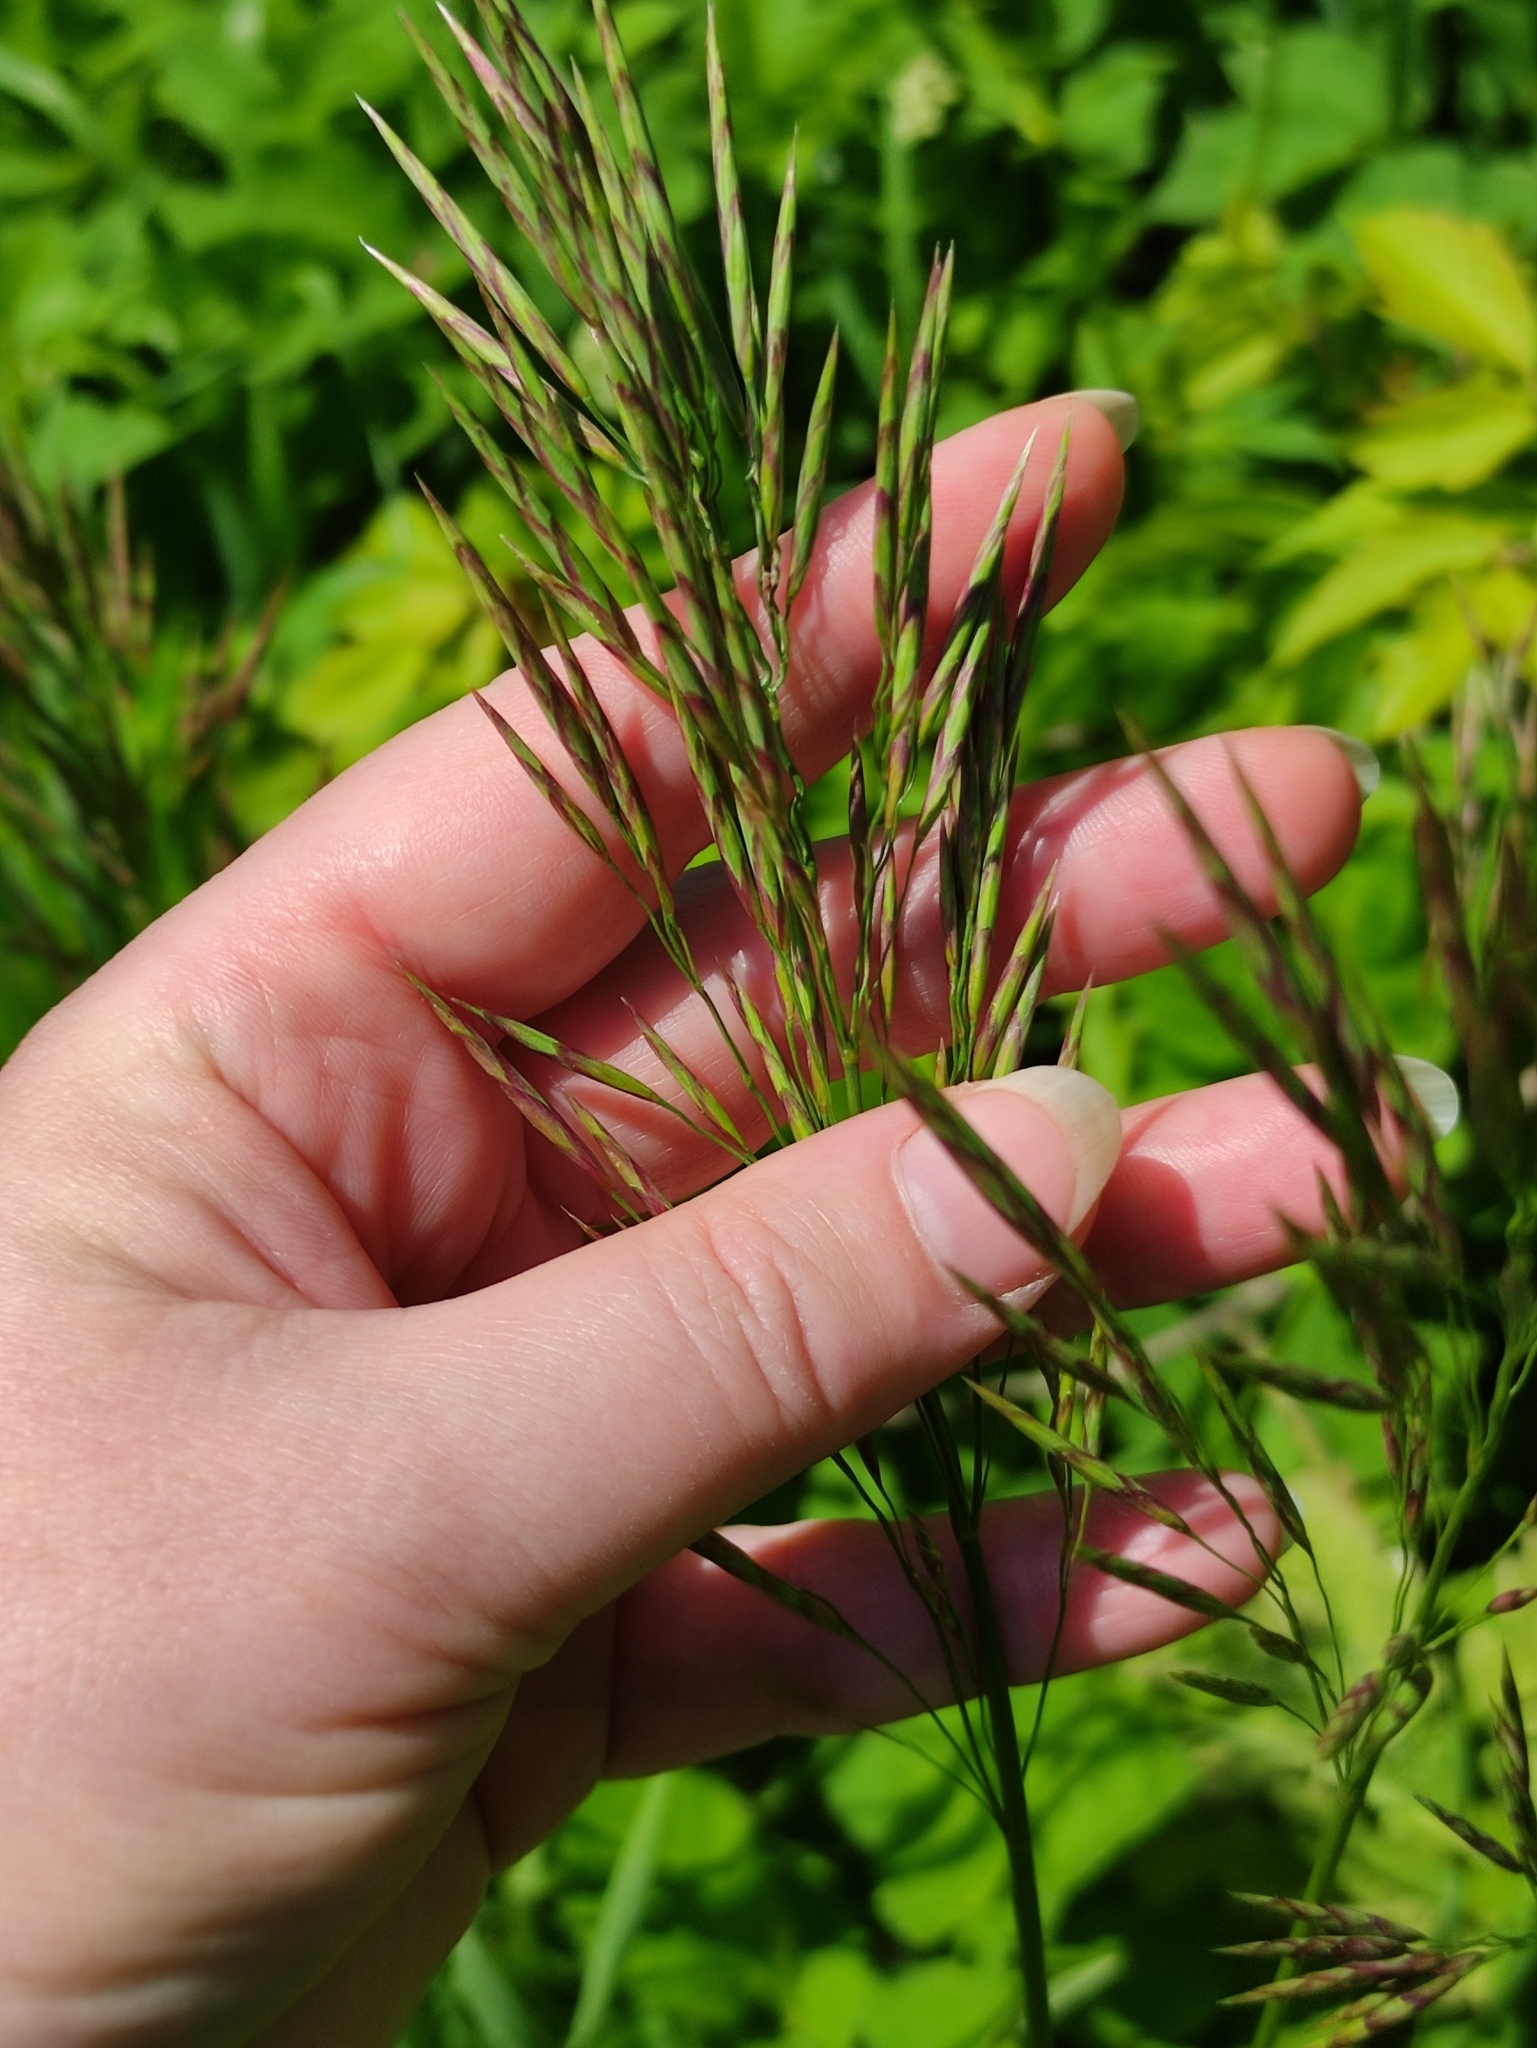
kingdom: Plantae
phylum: Tracheophyta
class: Liliopsida
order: Poales
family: Poaceae
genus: Bromus
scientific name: Bromus inermis
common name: Smooth brome
